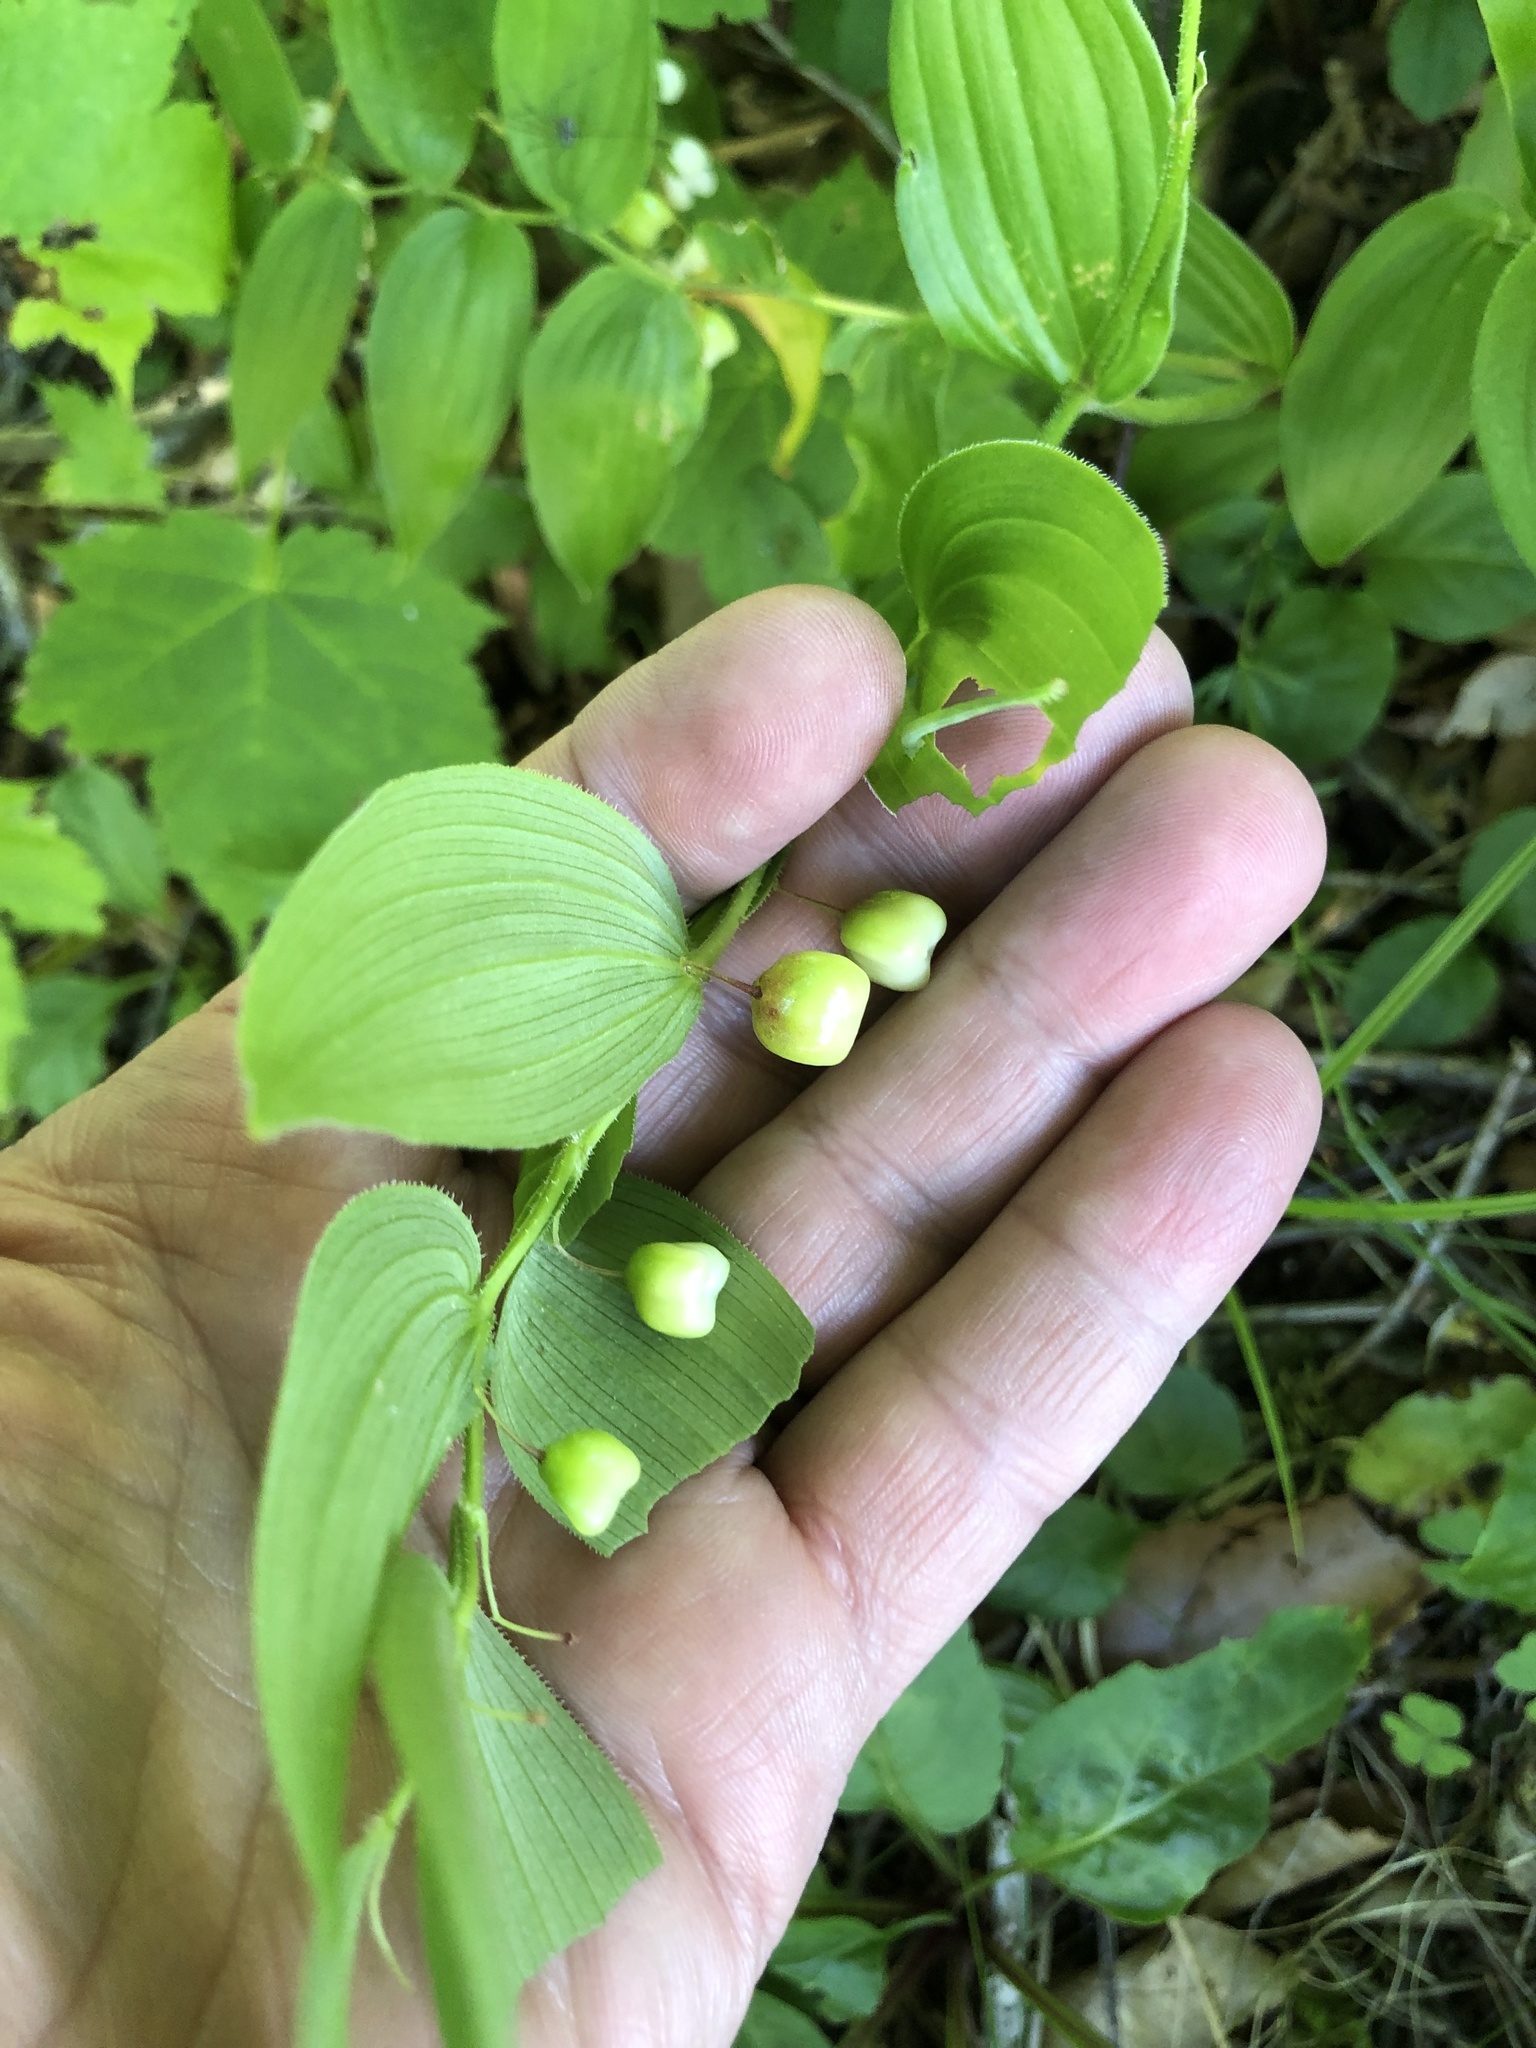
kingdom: Plantae
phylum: Tracheophyta
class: Liliopsida
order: Liliales
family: Liliaceae
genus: Streptopus
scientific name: Streptopus lanceolatus
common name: Rose mandarin
